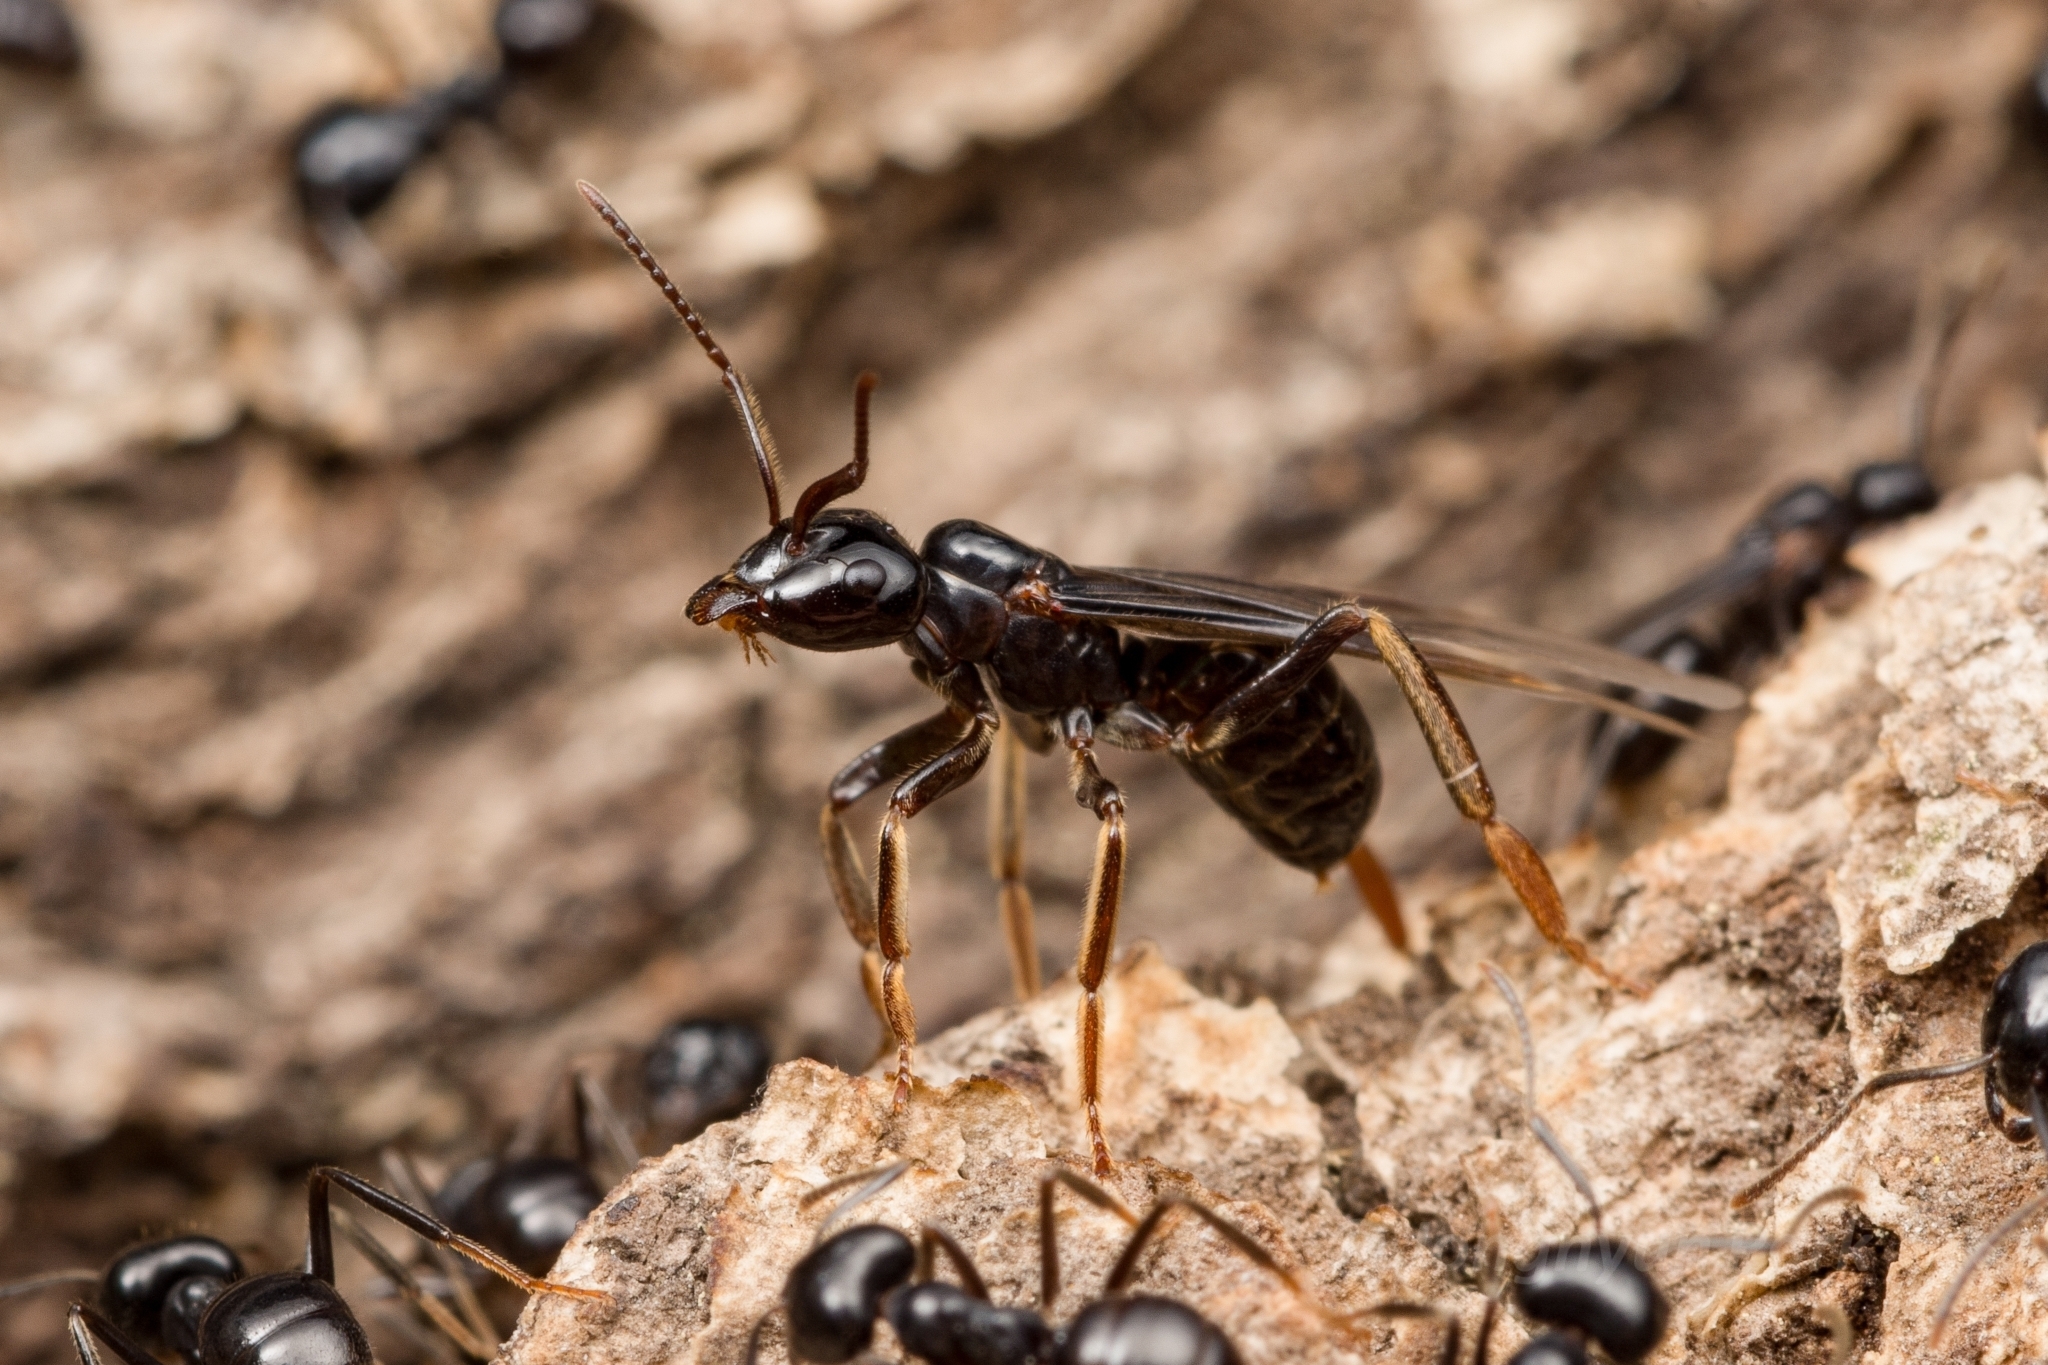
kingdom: Animalia
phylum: Arthropoda
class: Insecta
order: Hymenoptera
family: Formicidae
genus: Lasius
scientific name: Lasius spathepus
